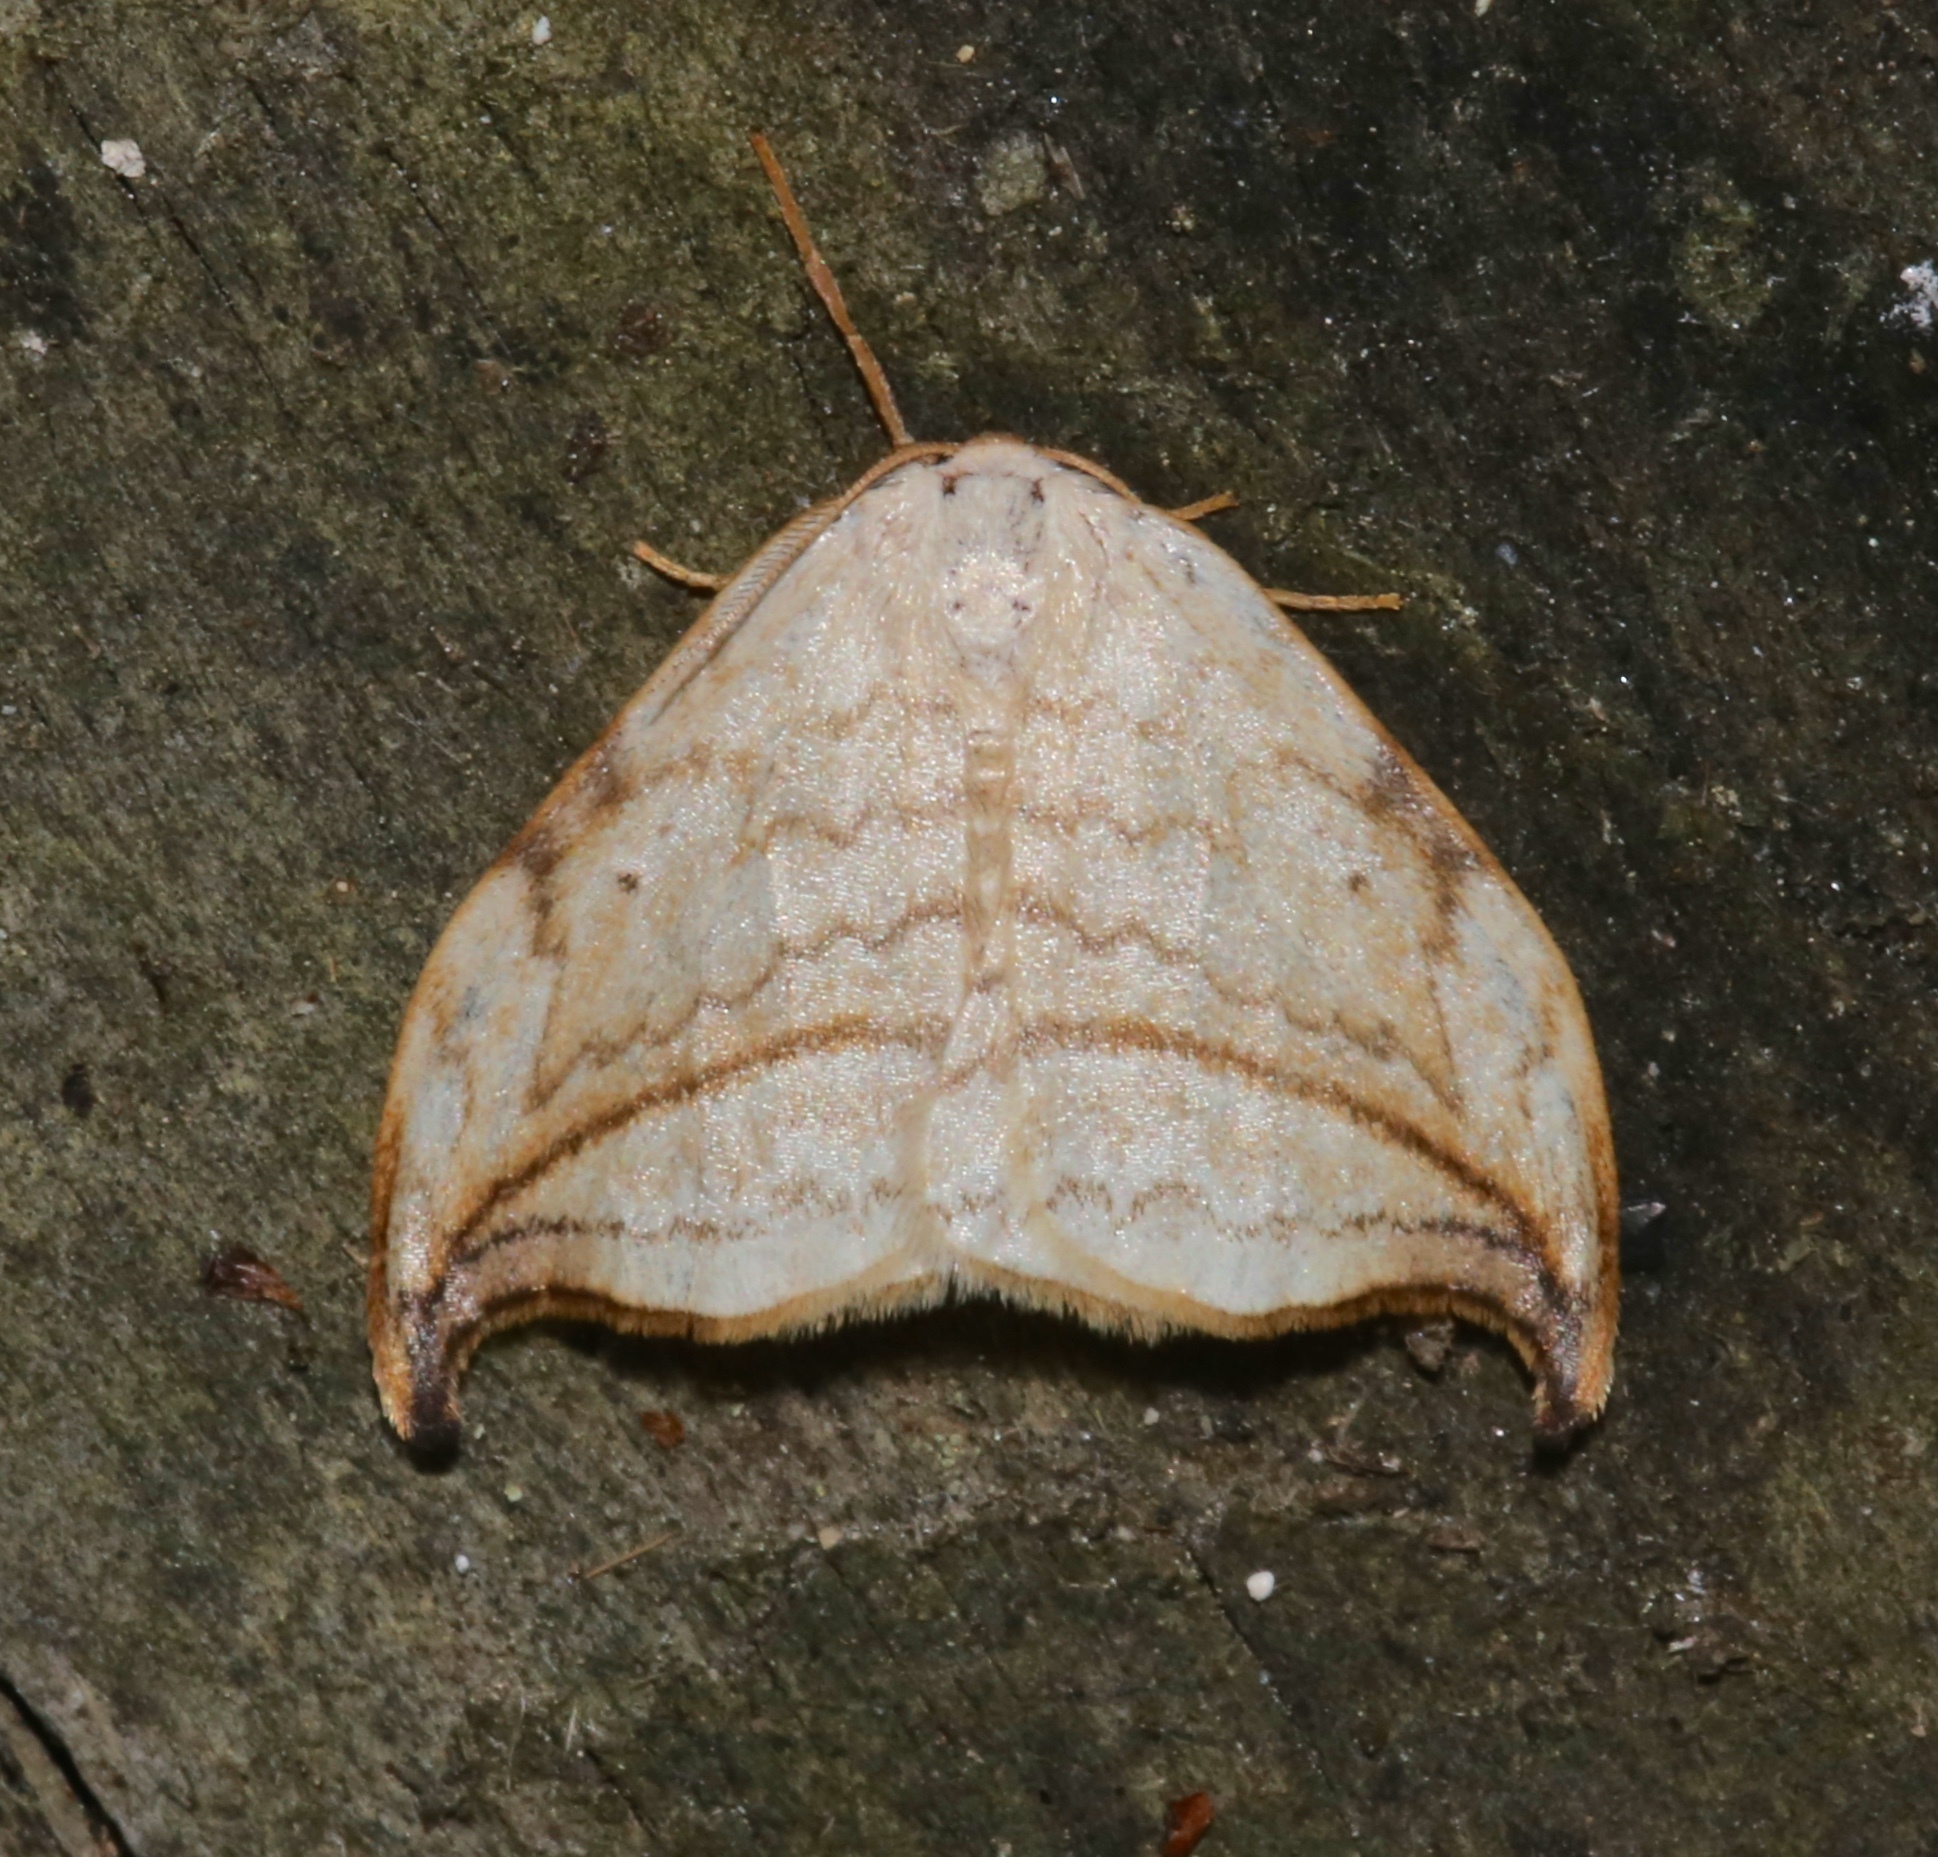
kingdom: Animalia
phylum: Arthropoda
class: Insecta
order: Lepidoptera
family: Drepanidae
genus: Drepana
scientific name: Drepana arcuata
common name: Arched hooktip moth
